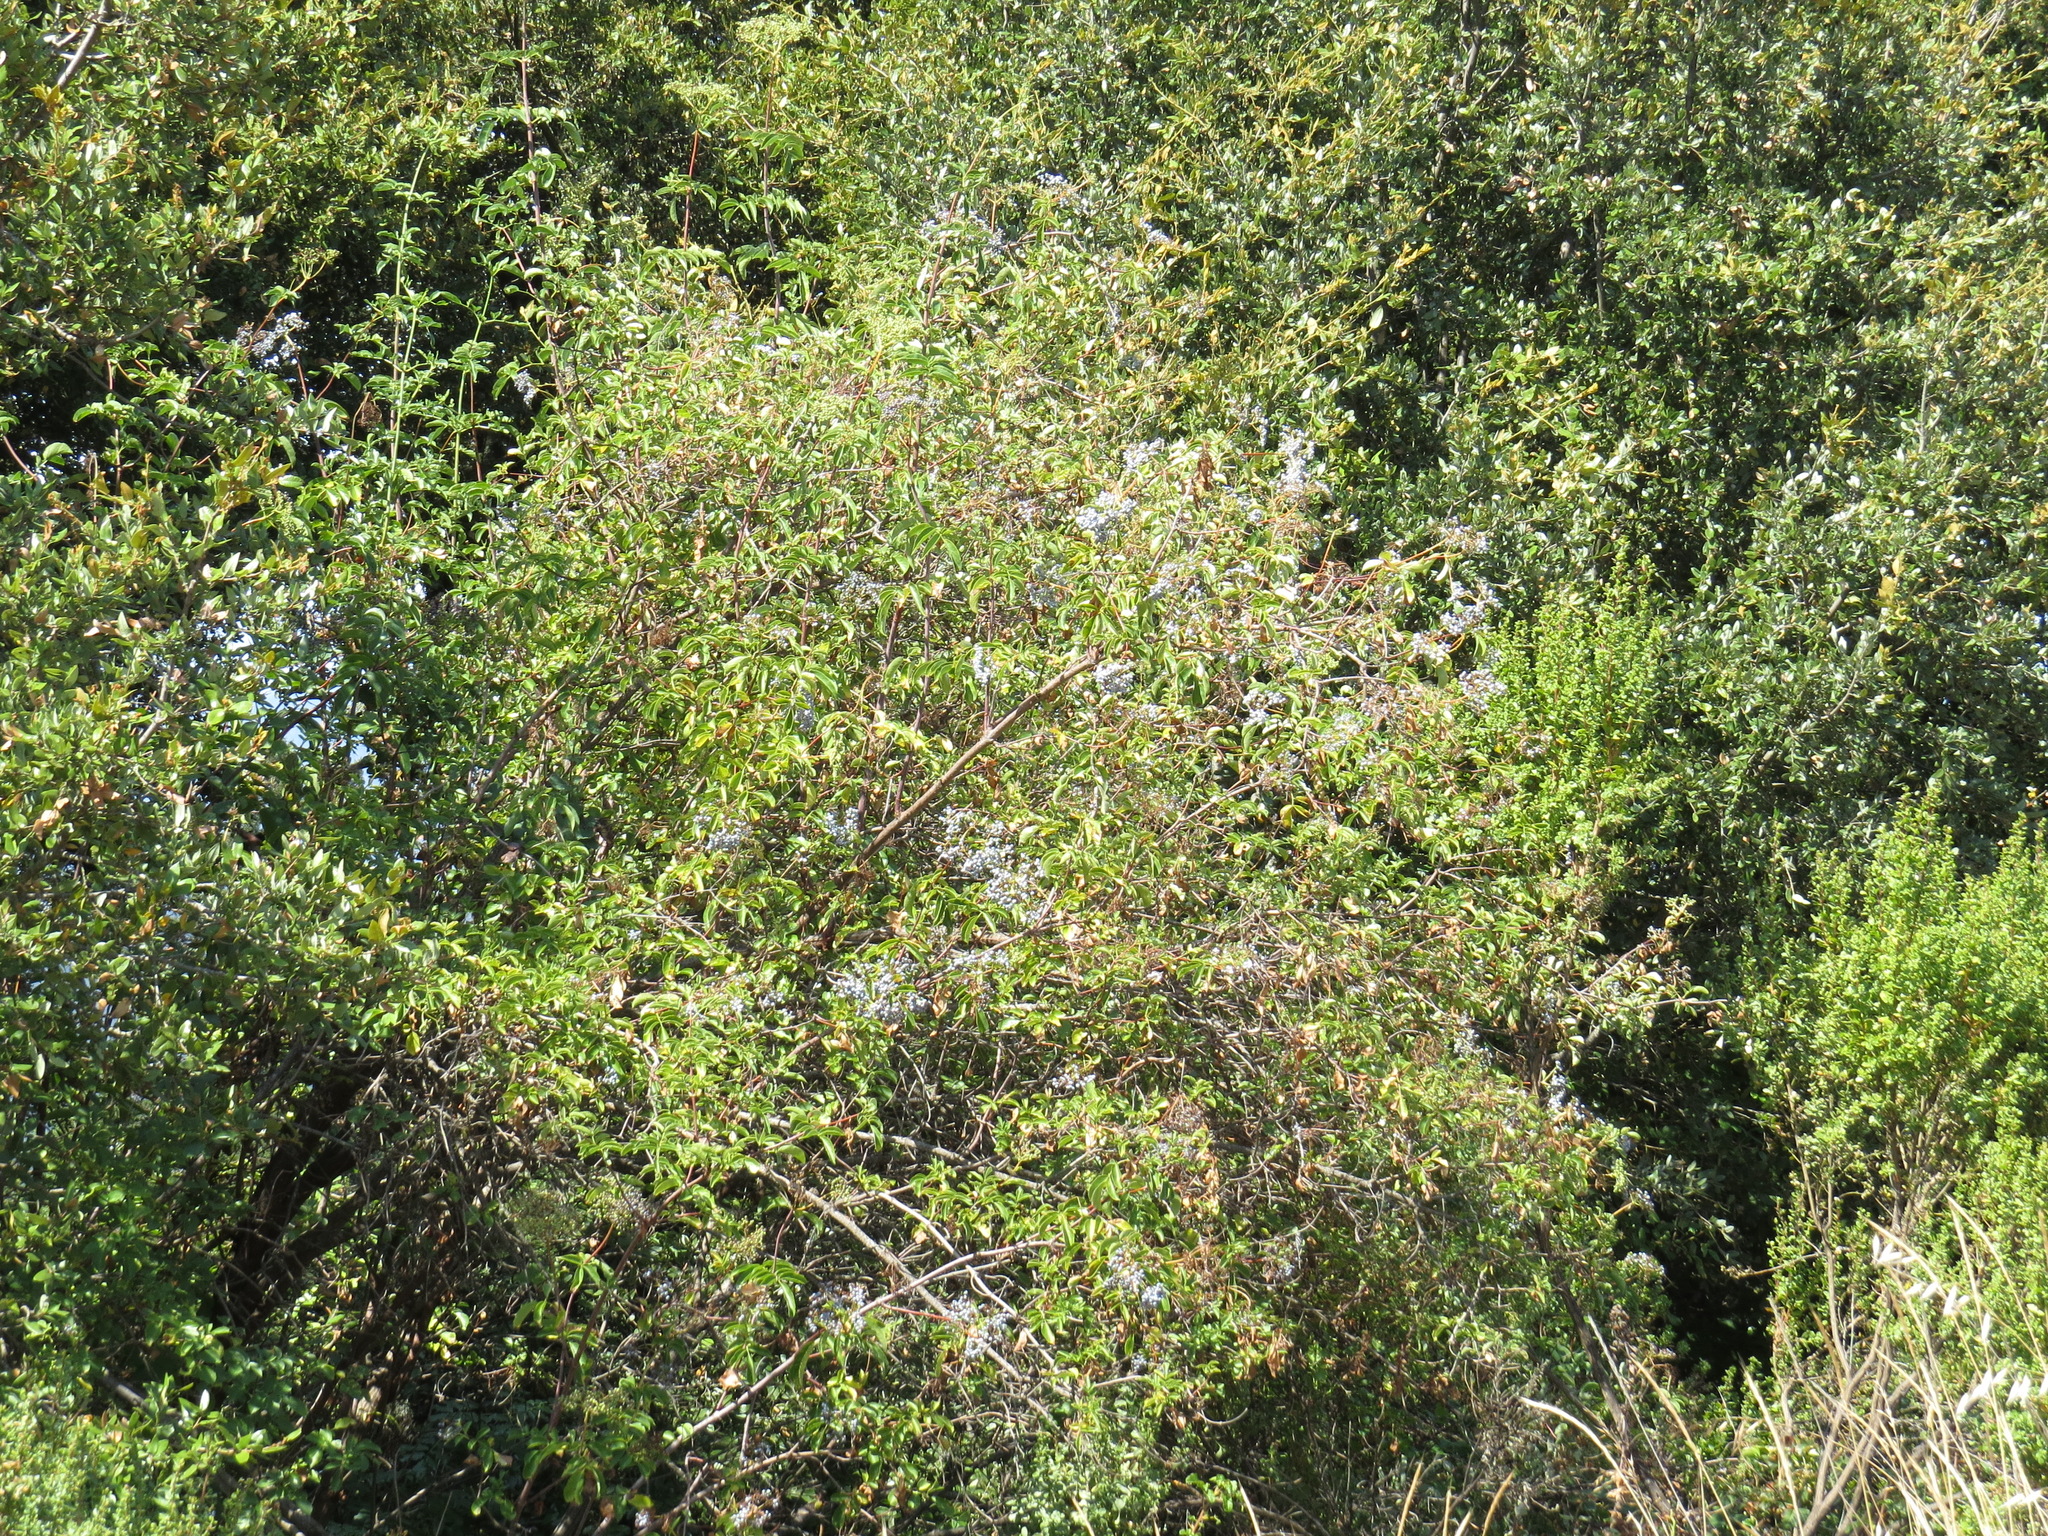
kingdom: Plantae
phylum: Tracheophyta
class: Magnoliopsida
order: Dipsacales
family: Viburnaceae
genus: Sambucus
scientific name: Sambucus cerulea
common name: Blue elder
